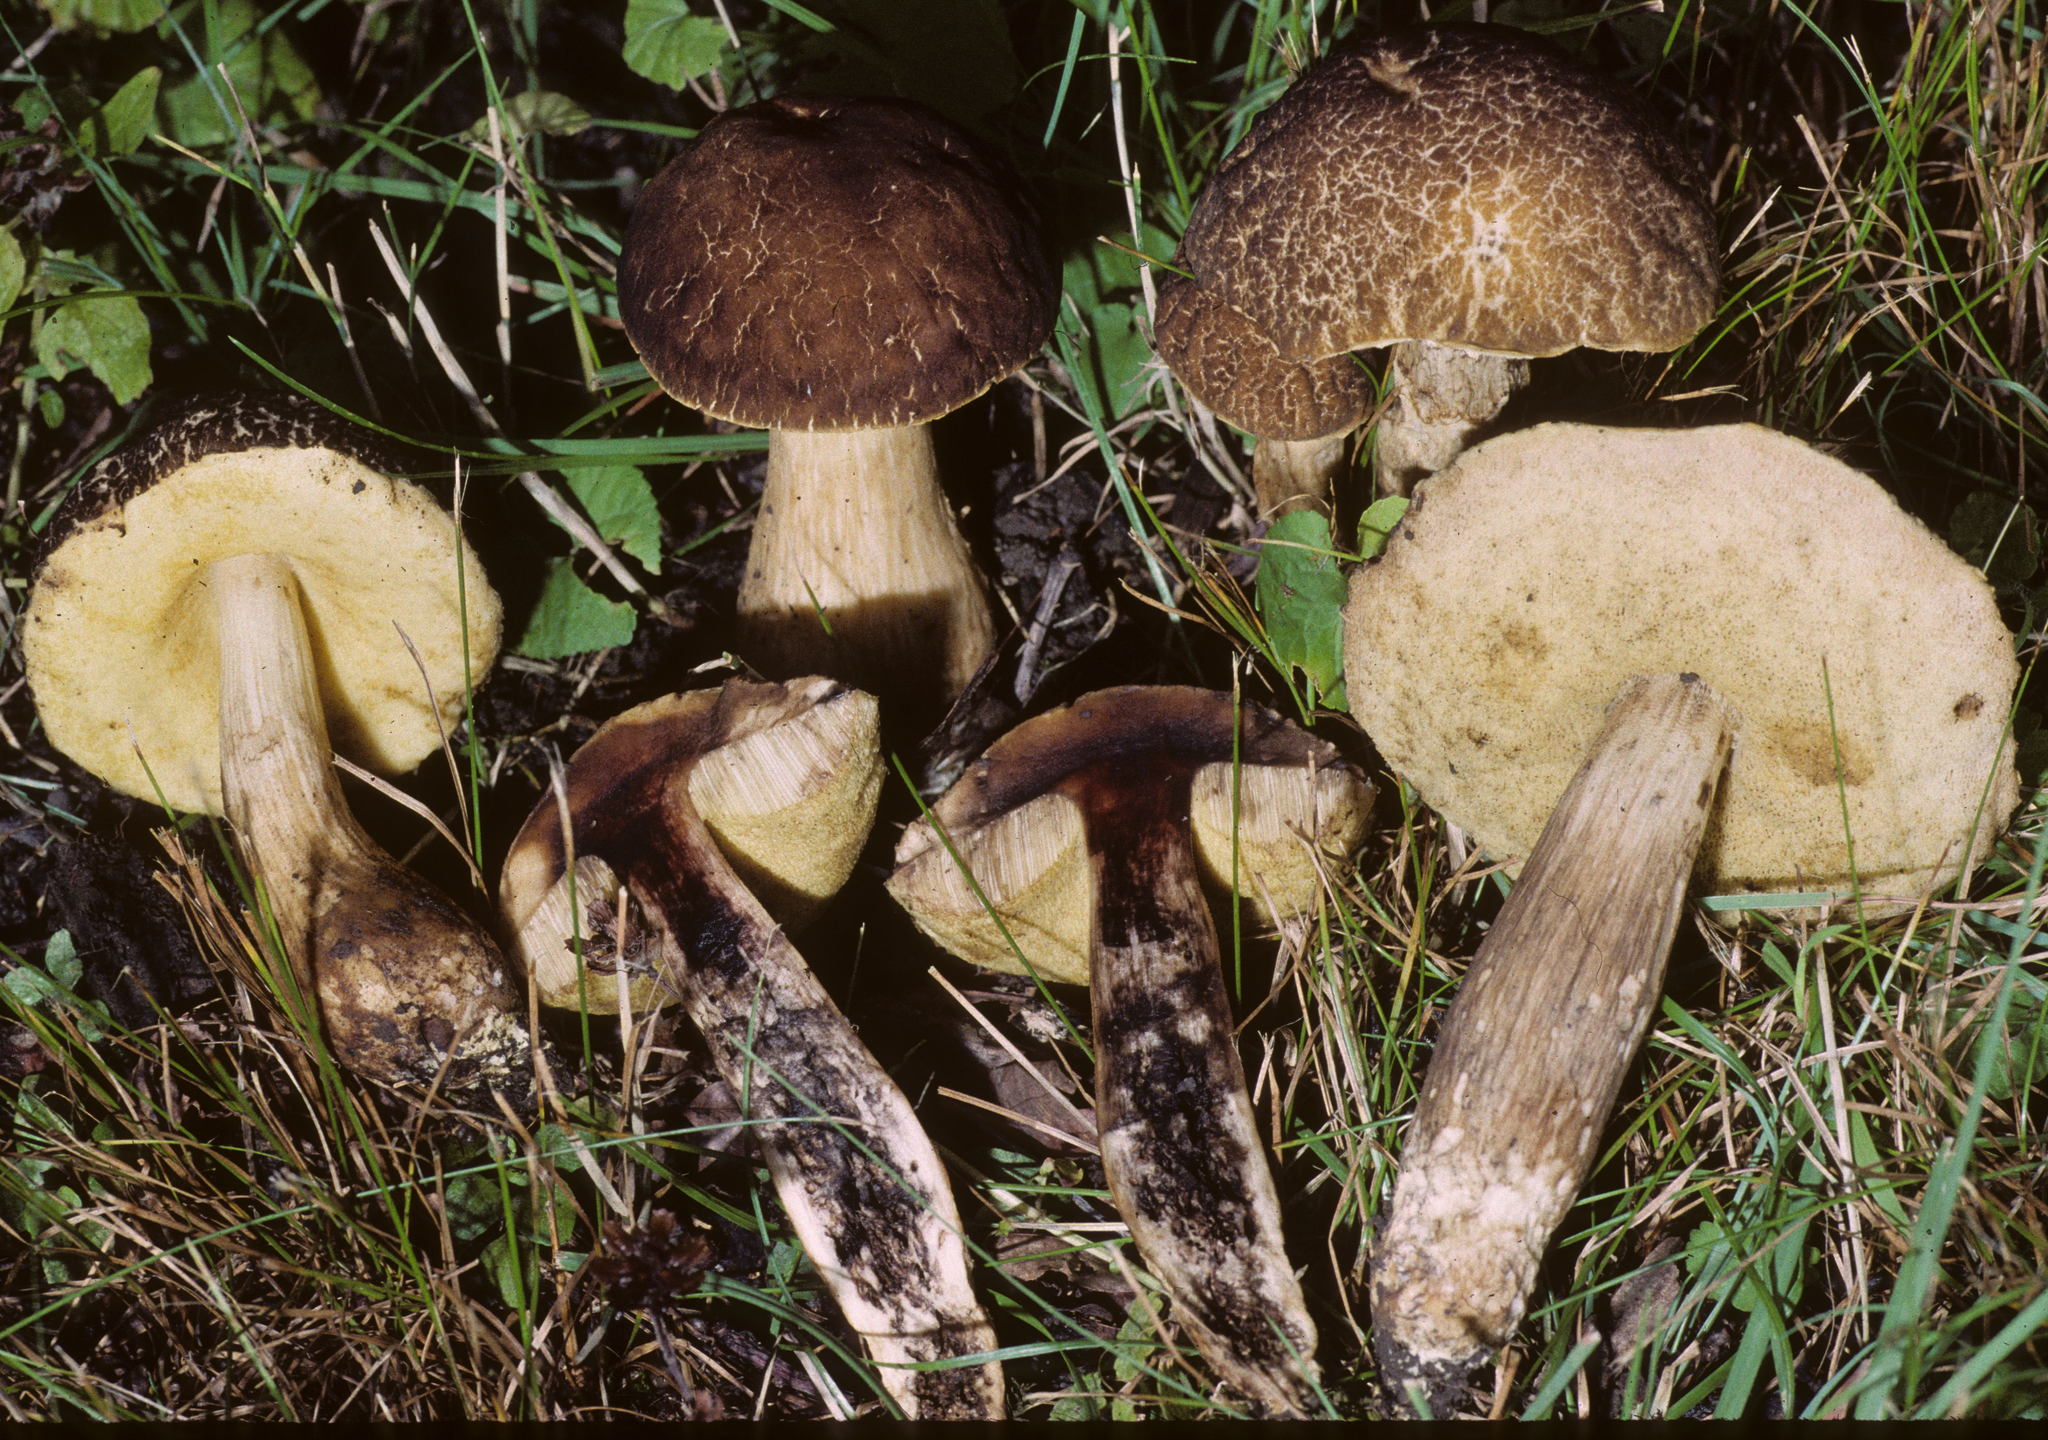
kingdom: Fungi
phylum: Basidiomycota
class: Agaricomycetes
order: Boletales
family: Boletaceae
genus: Leccinellum
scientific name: Leccinellum crocipodium
